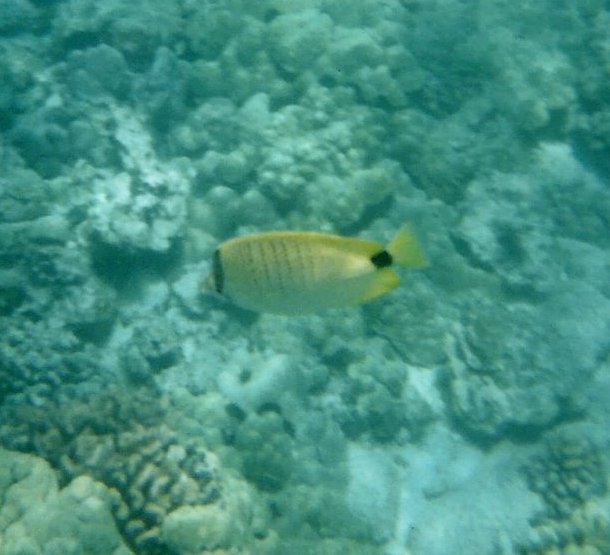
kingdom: Animalia
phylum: Chordata
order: Perciformes
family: Chaetodontidae
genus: Chaetodon
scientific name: Chaetodon miliaris
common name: Lemon butterflyfish
